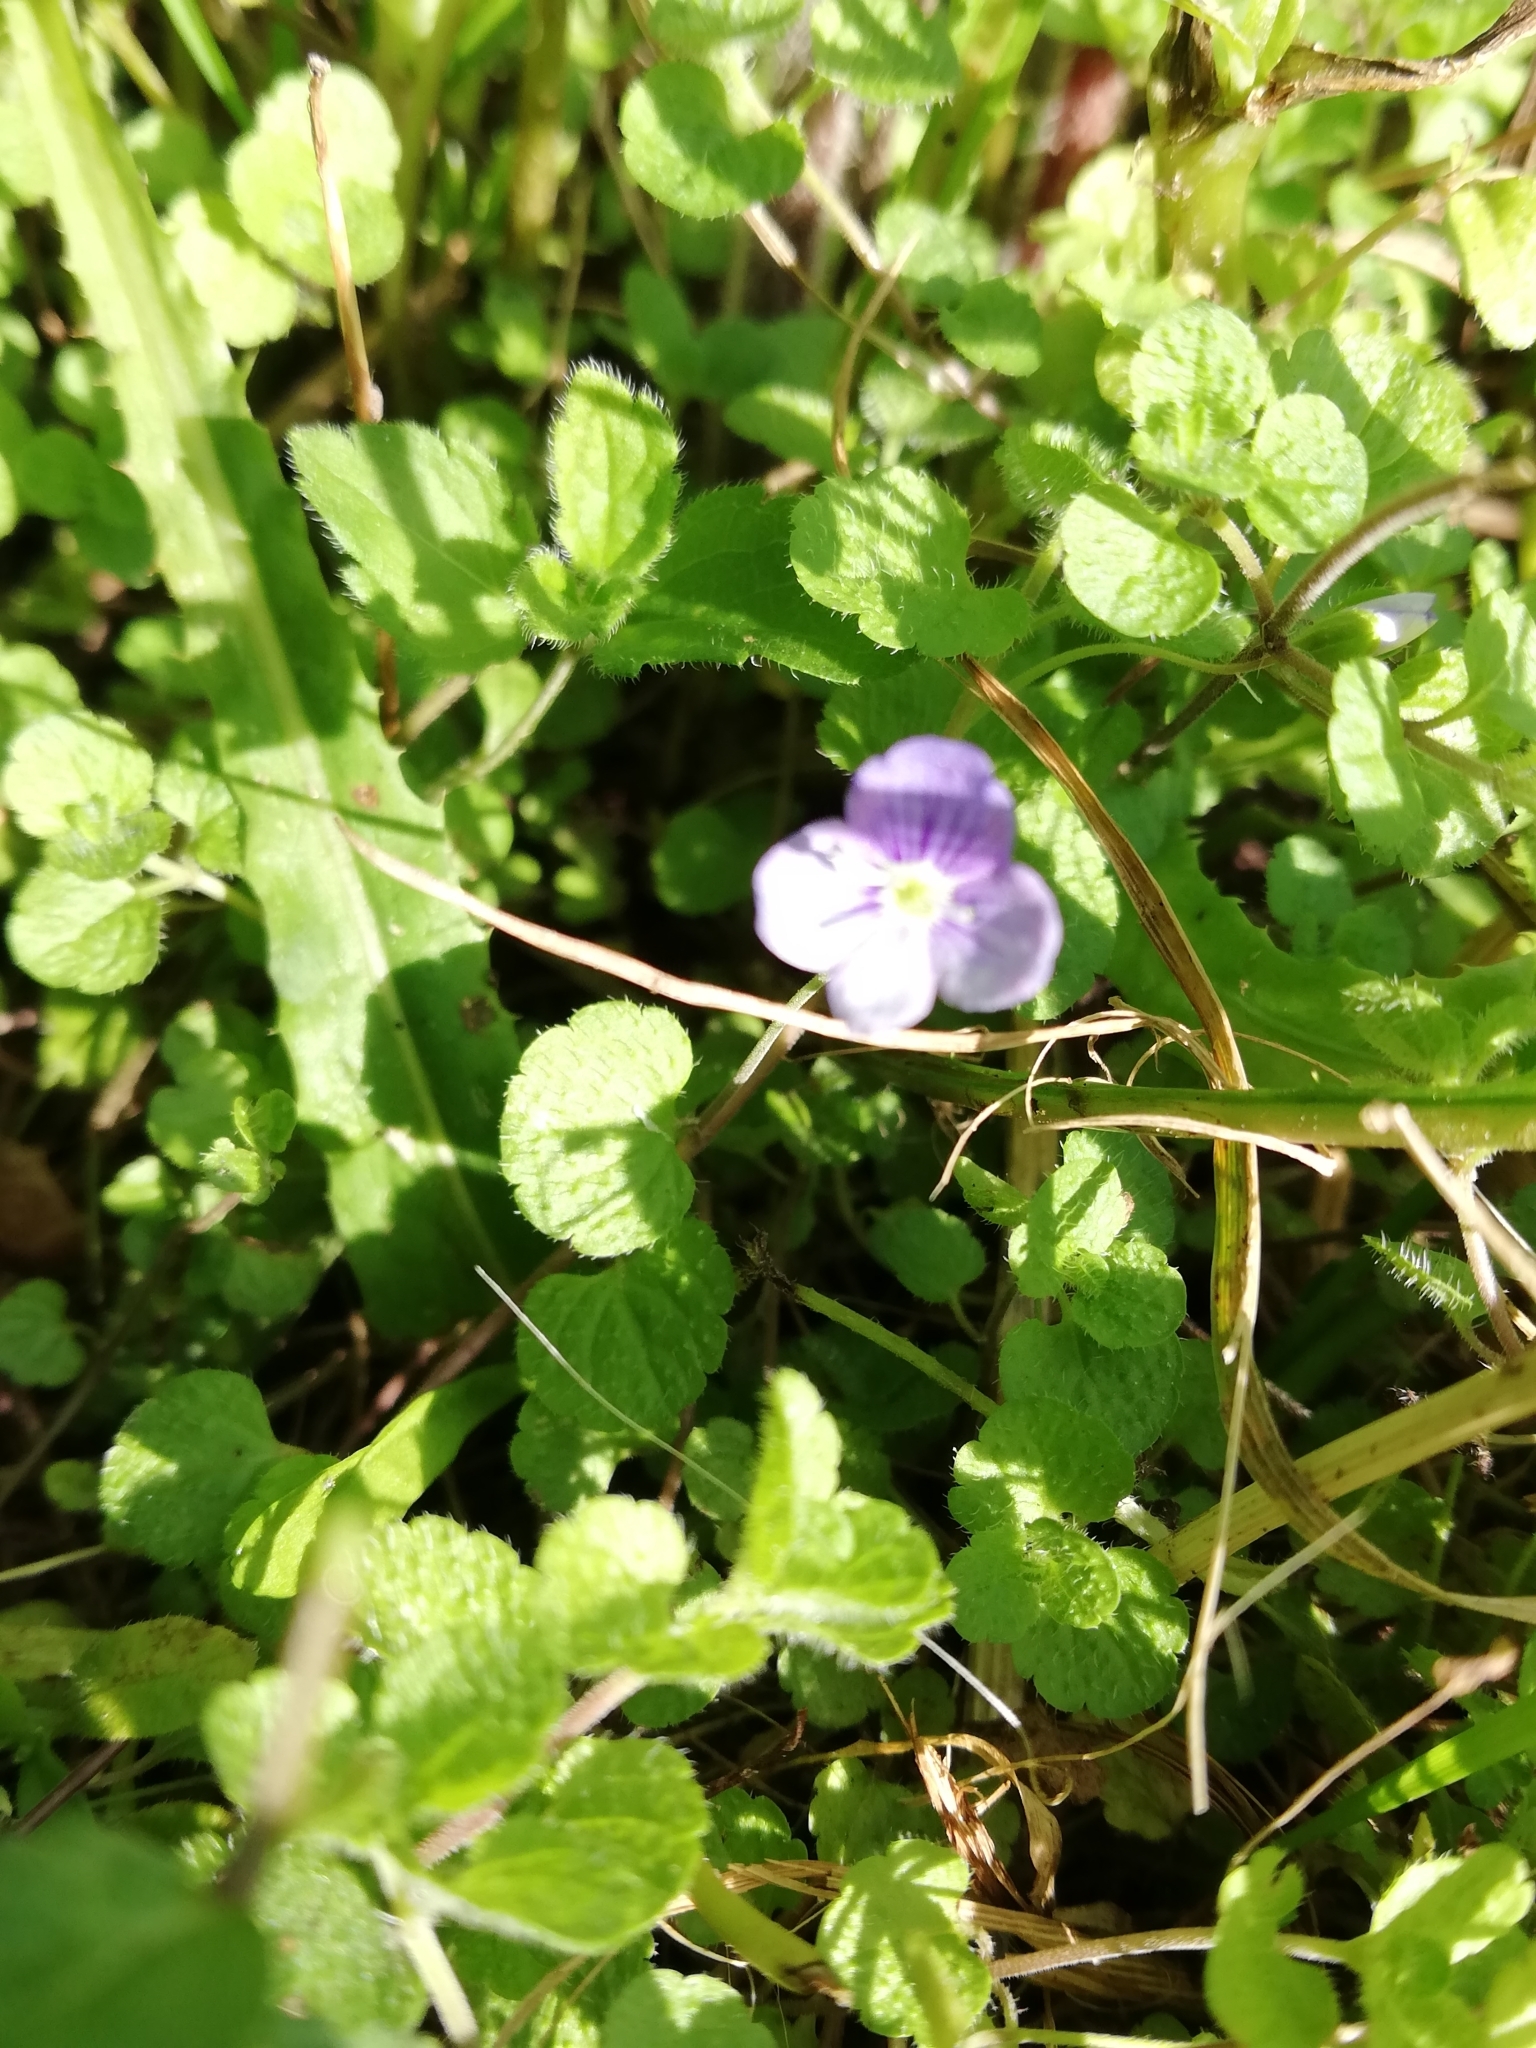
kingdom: Plantae
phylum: Tracheophyta
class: Magnoliopsida
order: Lamiales
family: Plantaginaceae
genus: Veronica
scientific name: Veronica filiformis
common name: Slender speedwell
